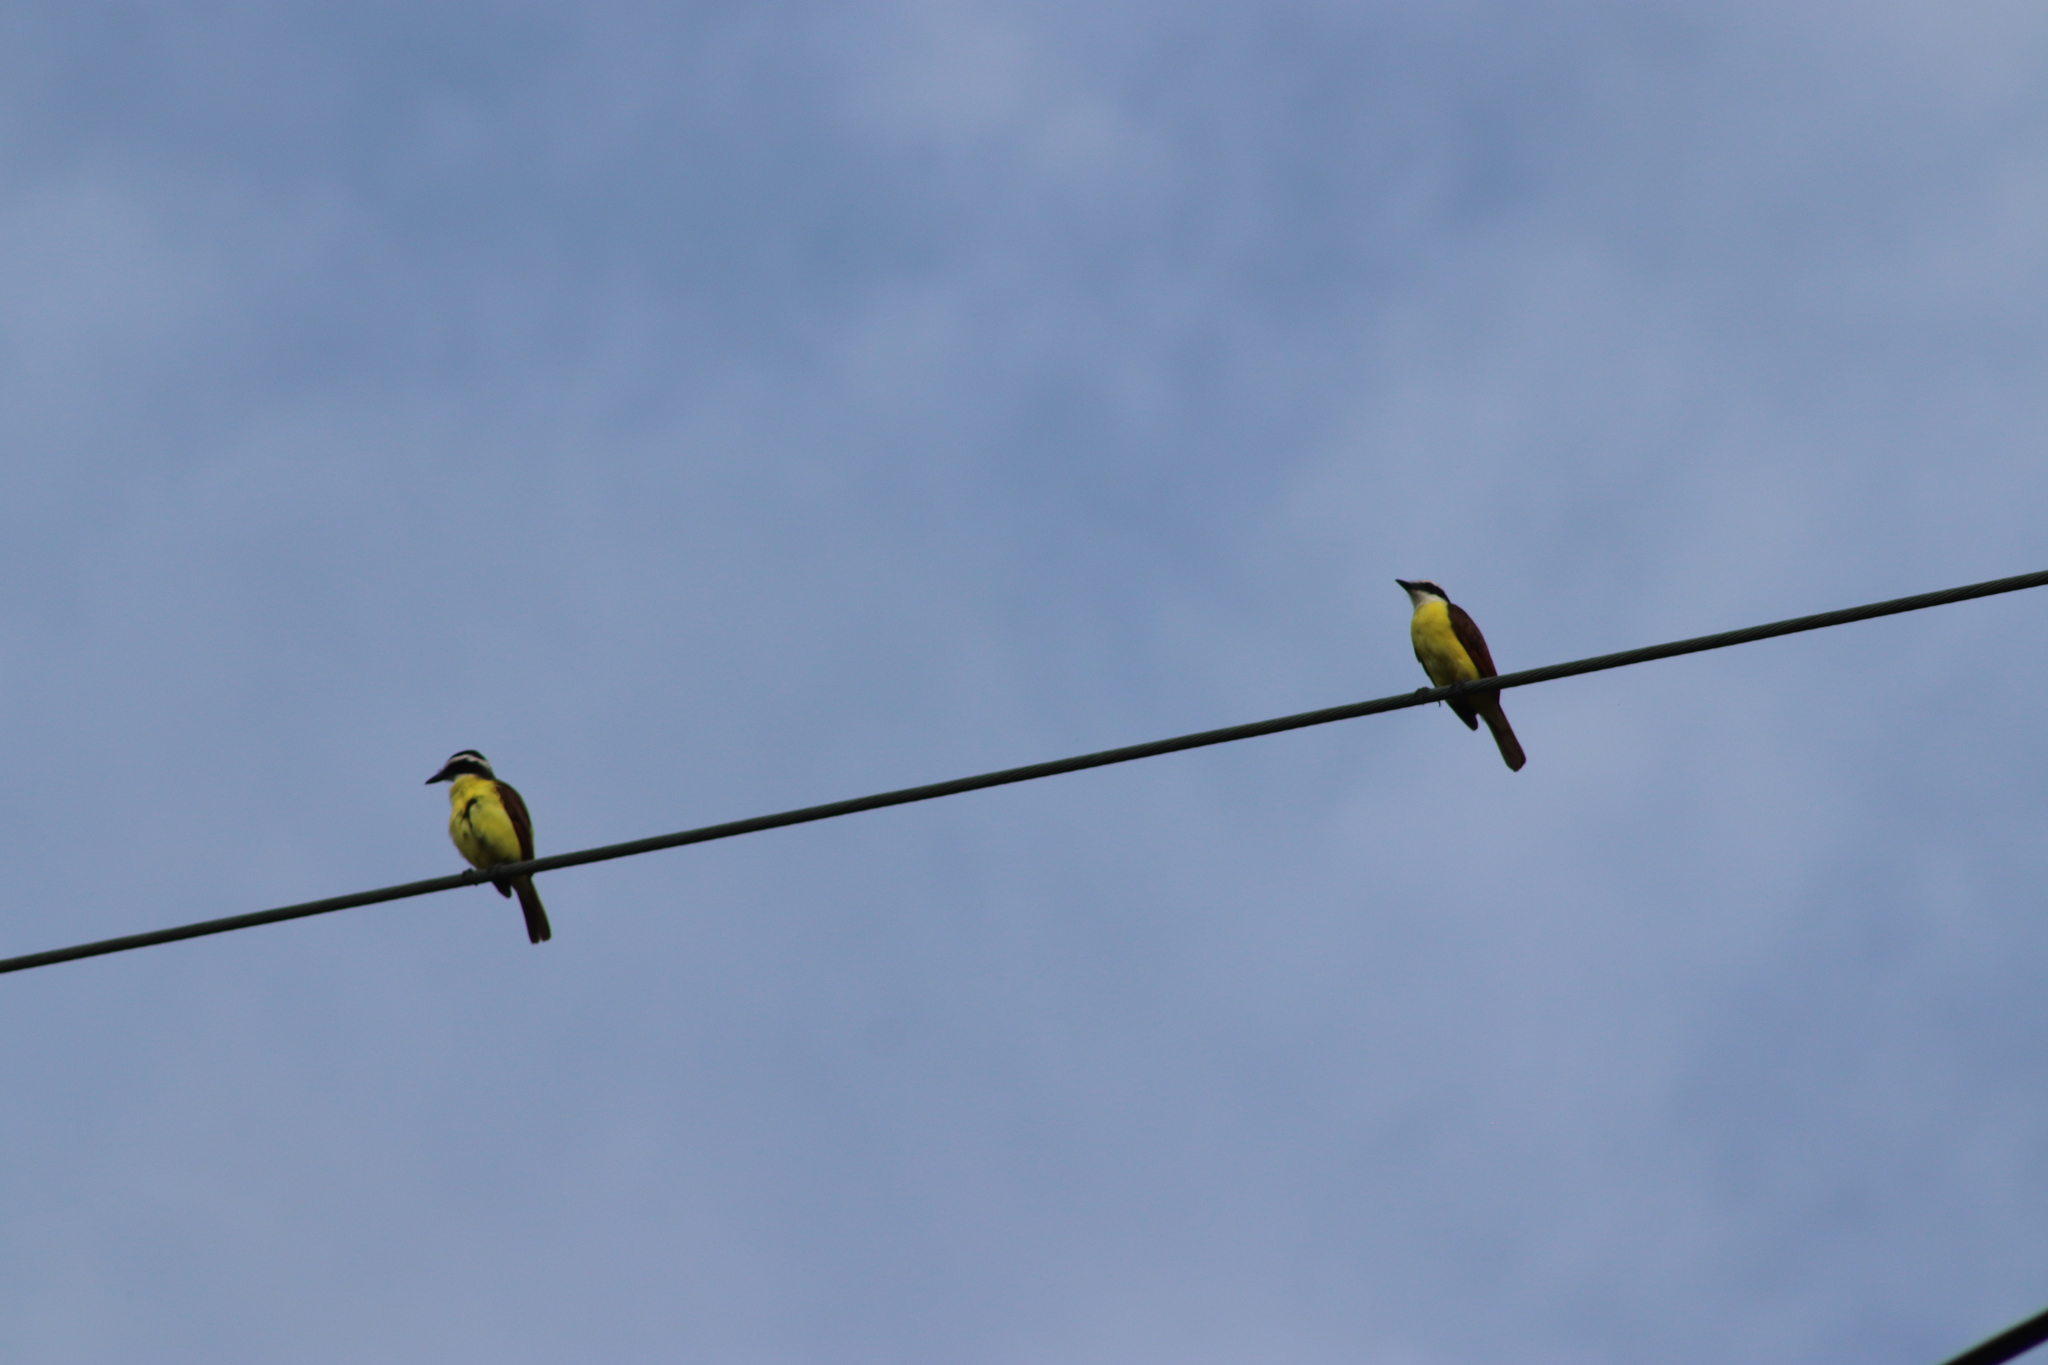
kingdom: Animalia
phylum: Chordata
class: Aves
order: Passeriformes
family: Tyrannidae
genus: Myiozetetes
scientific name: Myiozetetes cayanensis
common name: Rusty-margined flycatcher
